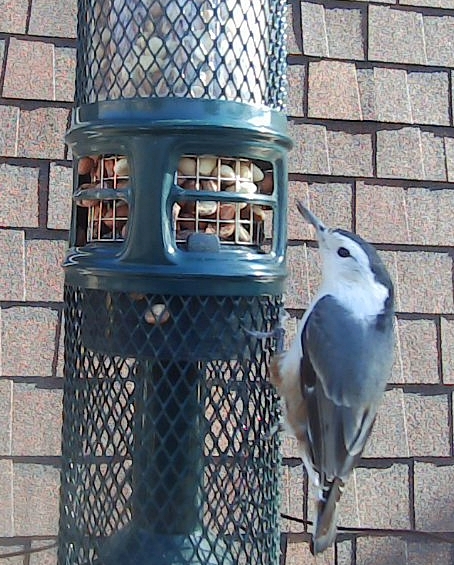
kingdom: Animalia
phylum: Chordata
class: Aves
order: Passeriformes
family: Sittidae
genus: Sitta
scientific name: Sitta carolinensis
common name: White-breasted nuthatch
